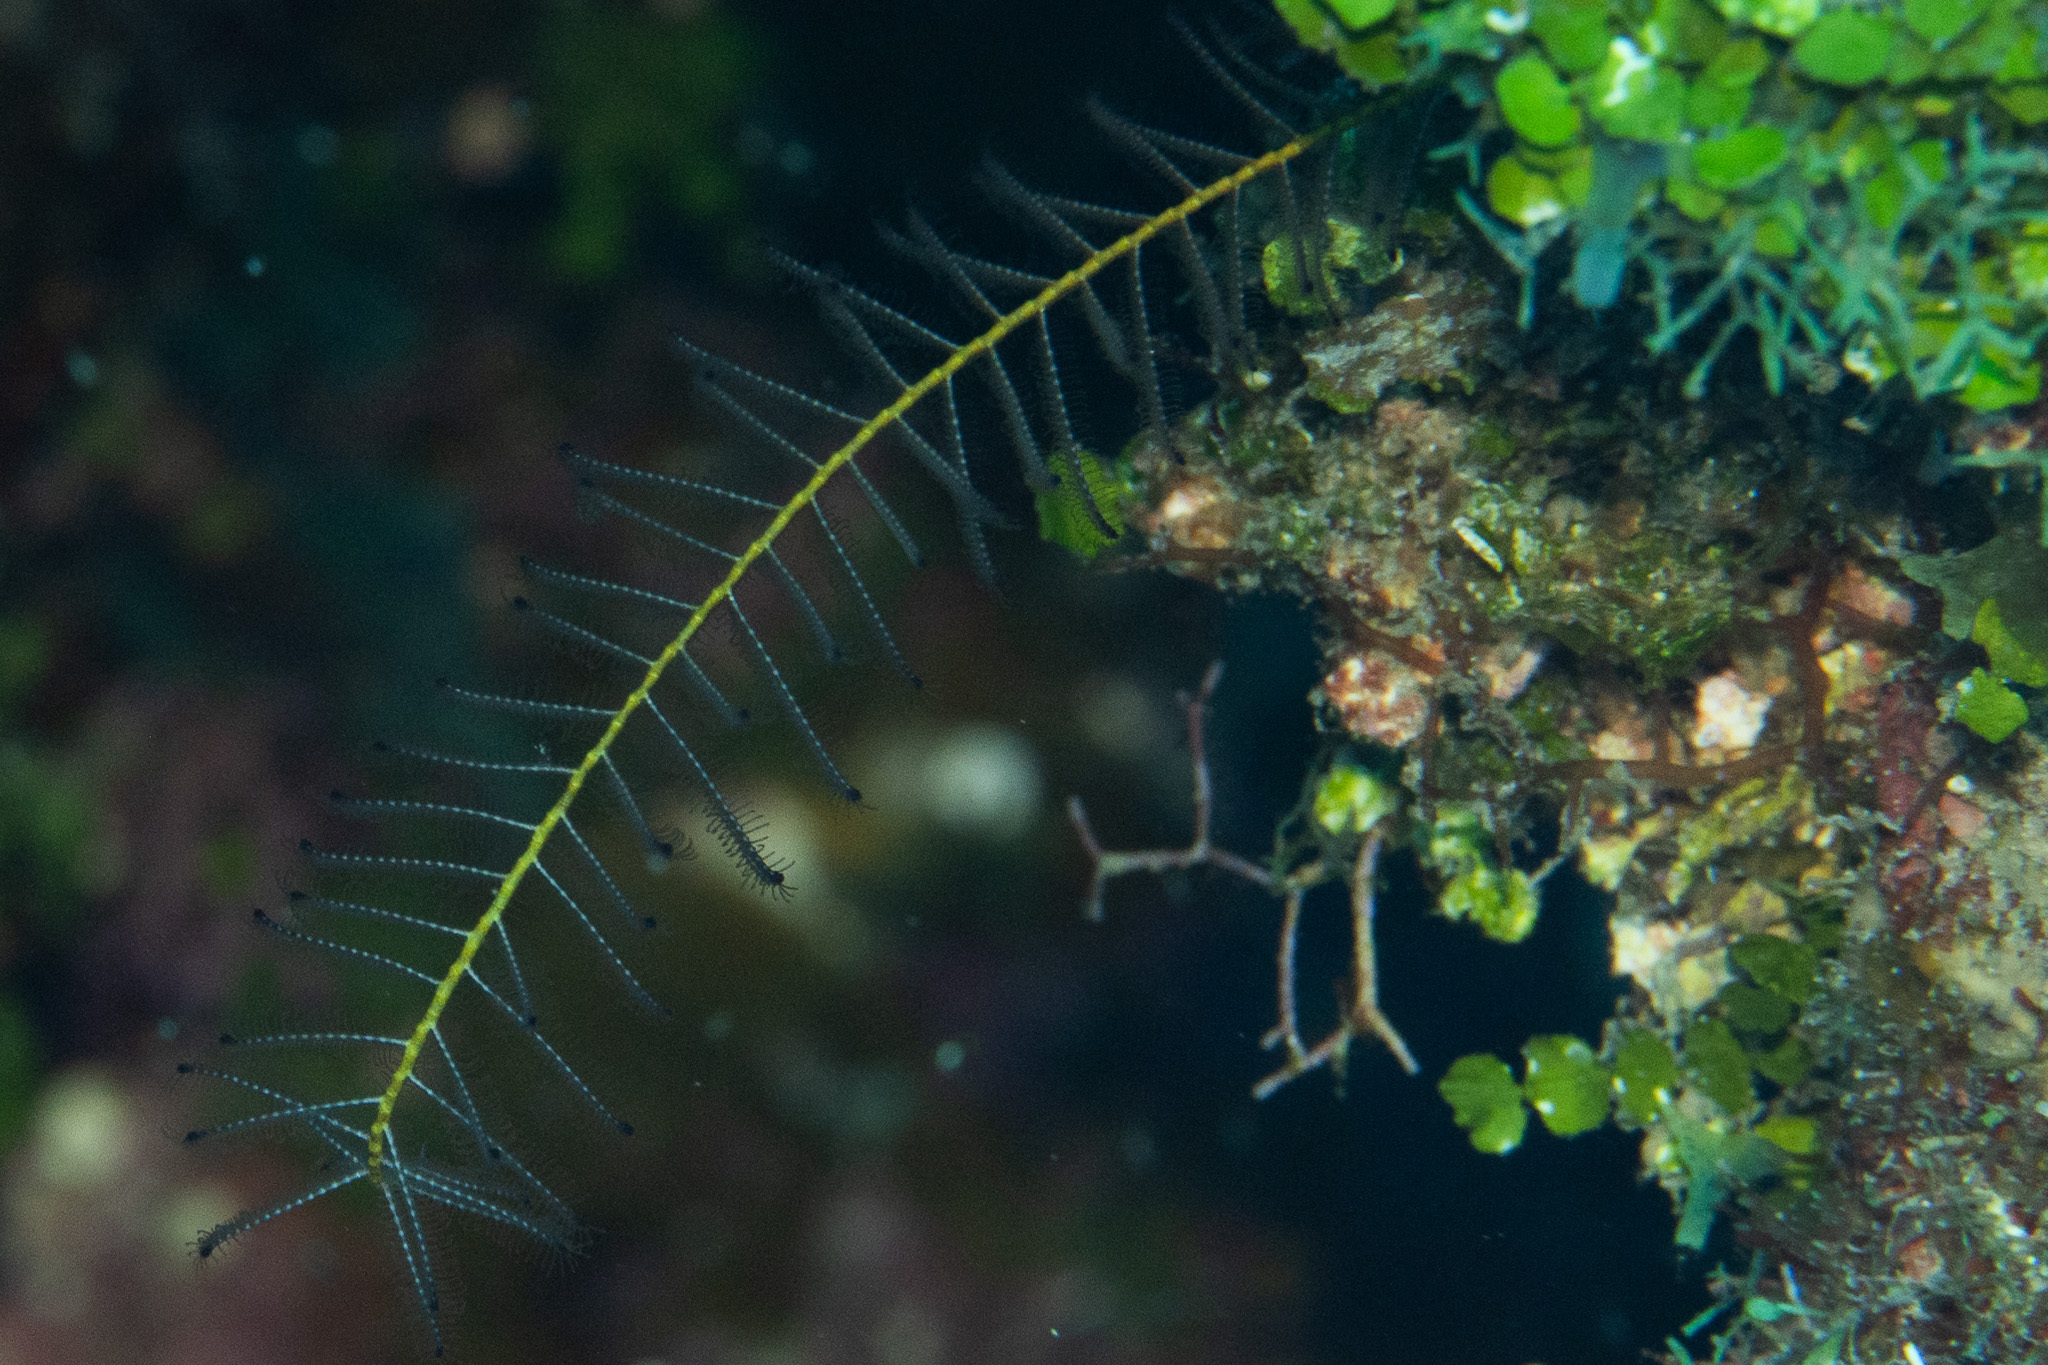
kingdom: Animalia
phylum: Echinodermata
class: Crinoidea
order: Comatulida
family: Comatulidae
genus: Davidaster
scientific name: Davidaster discoideus
